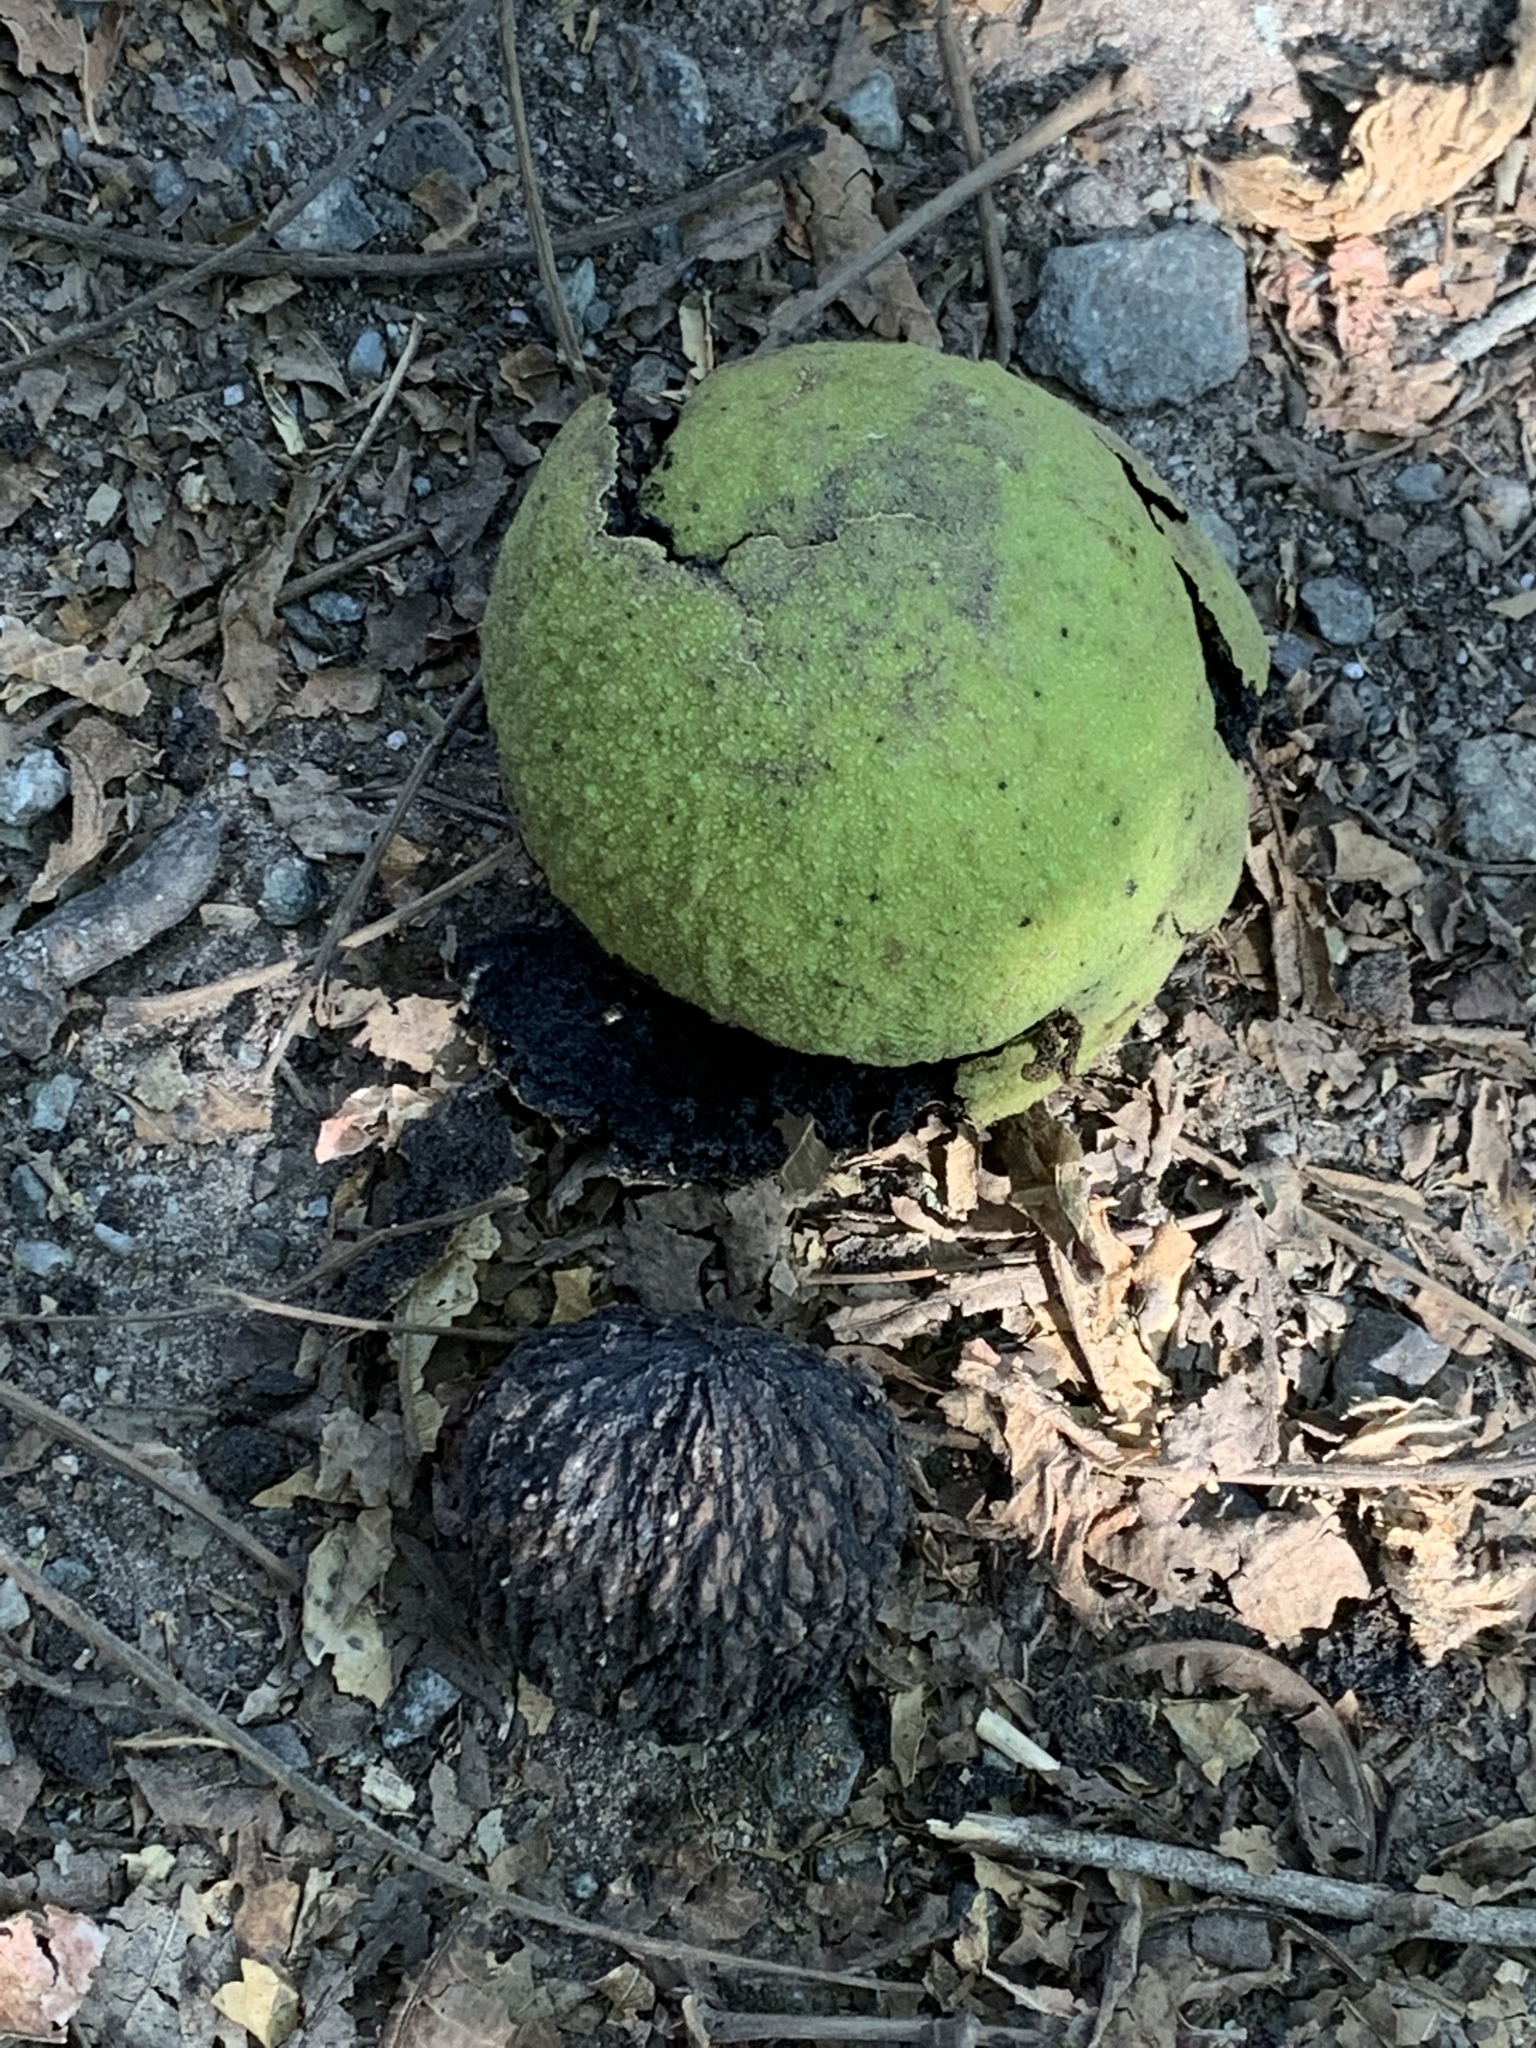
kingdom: Plantae
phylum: Tracheophyta
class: Magnoliopsida
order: Fagales
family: Juglandaceae
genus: Juglans
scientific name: Juglans nigra
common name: Black walnut
